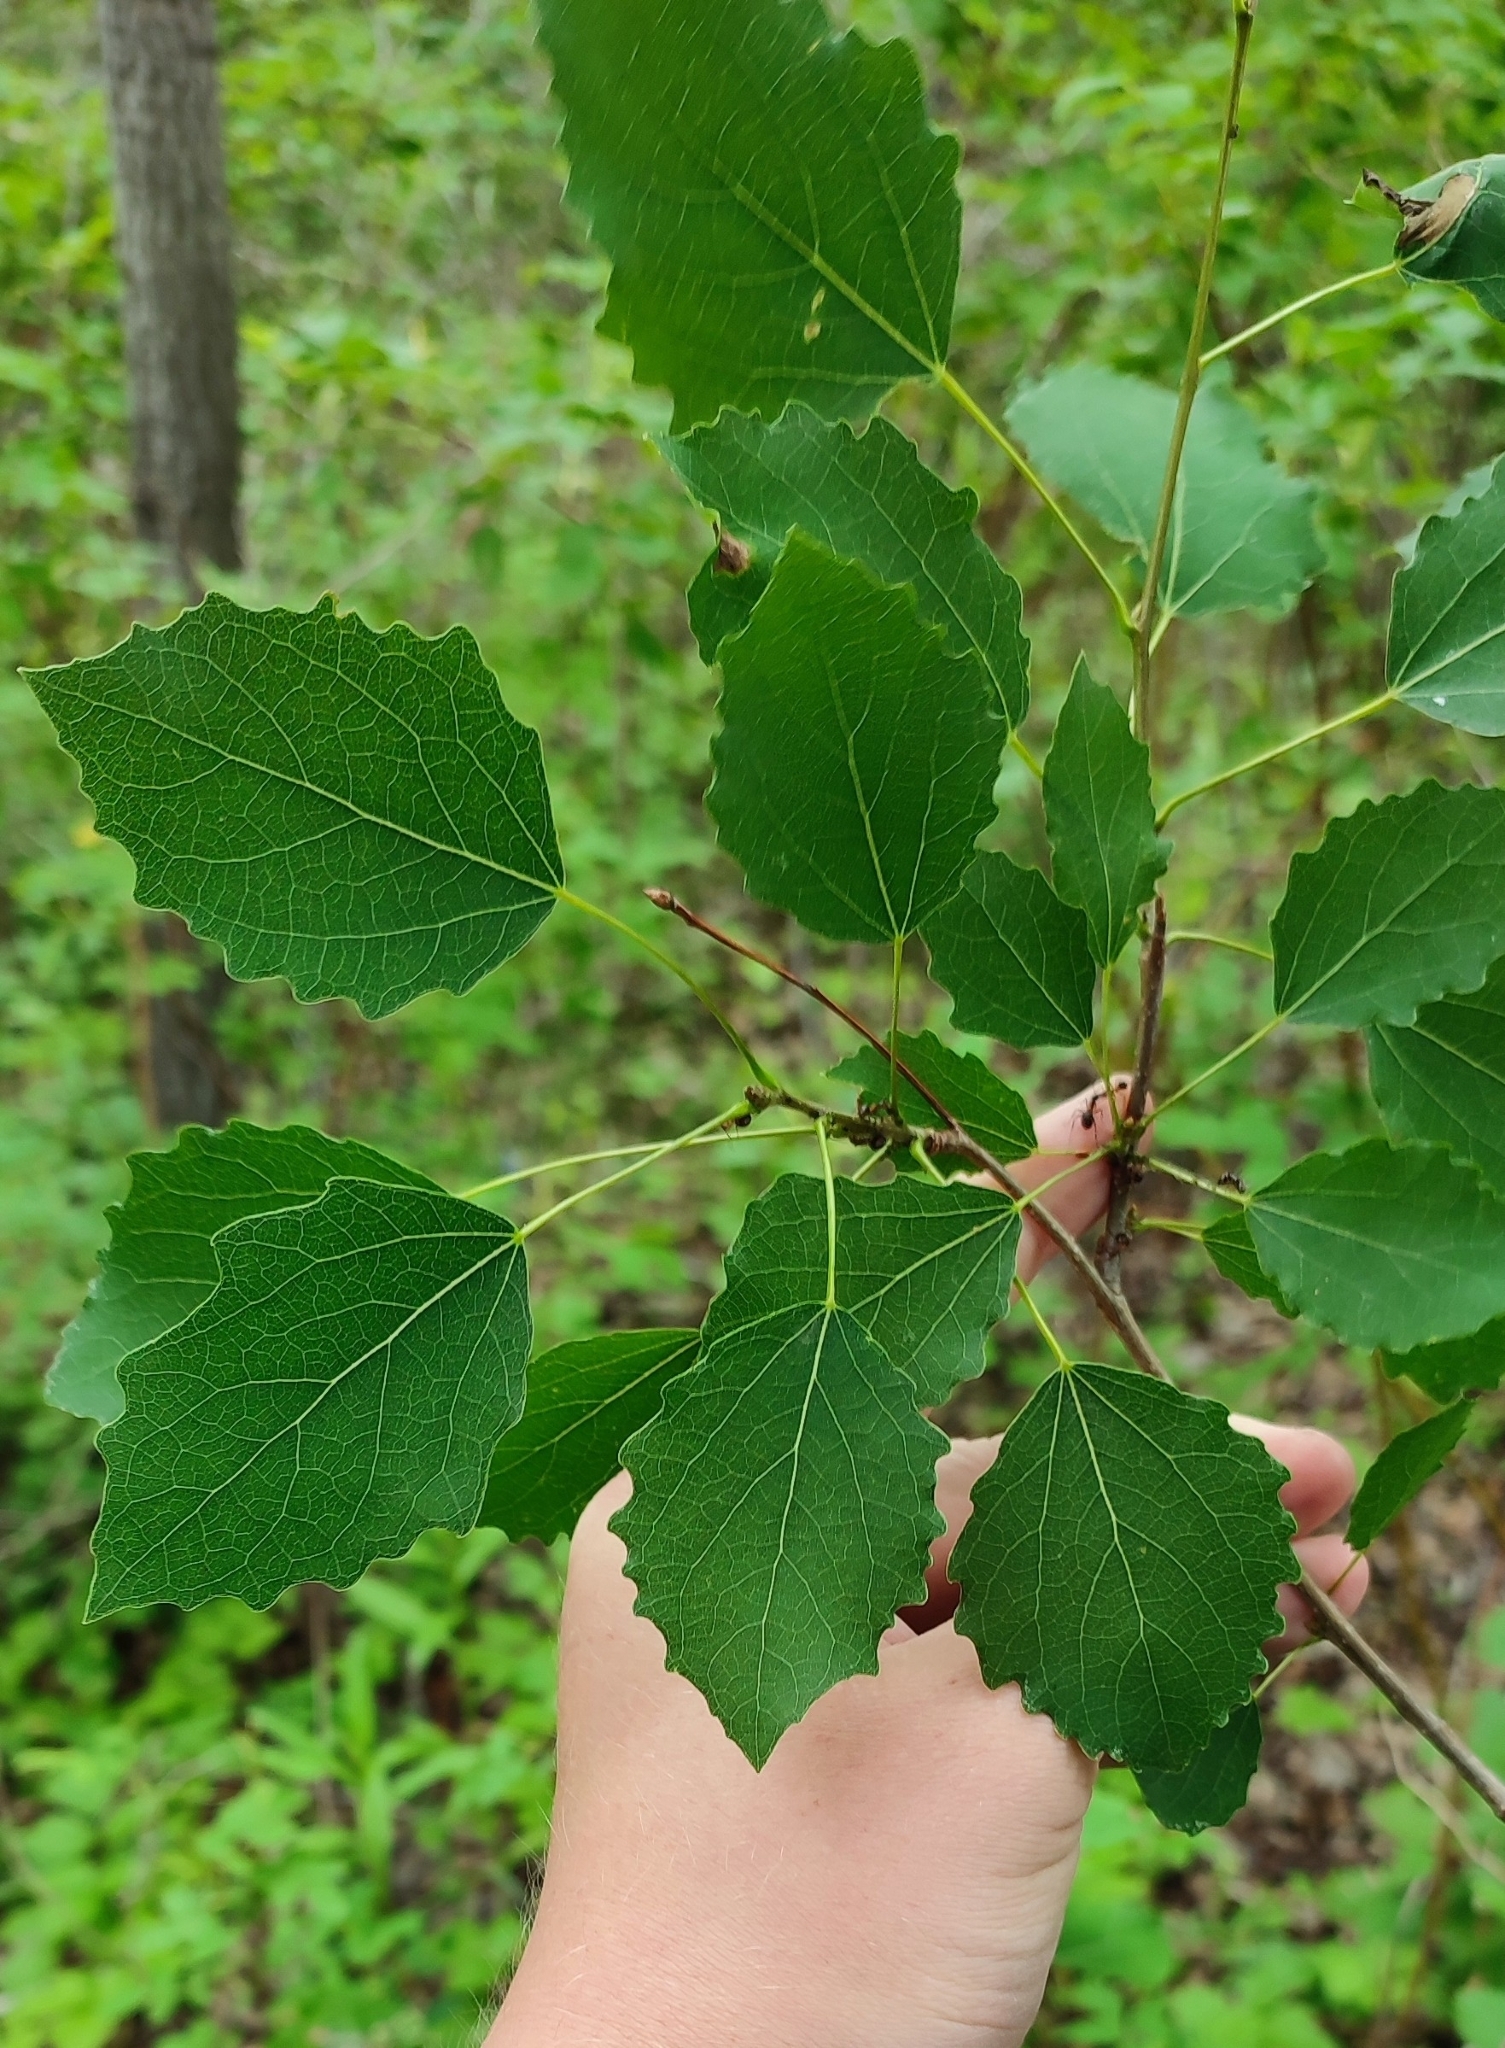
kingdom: Plantae
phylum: Tracheophyta
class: Magnoliopsida
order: Malpighiales
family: Salicaceae
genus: Populus
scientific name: Populus tremula
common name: European aspen
